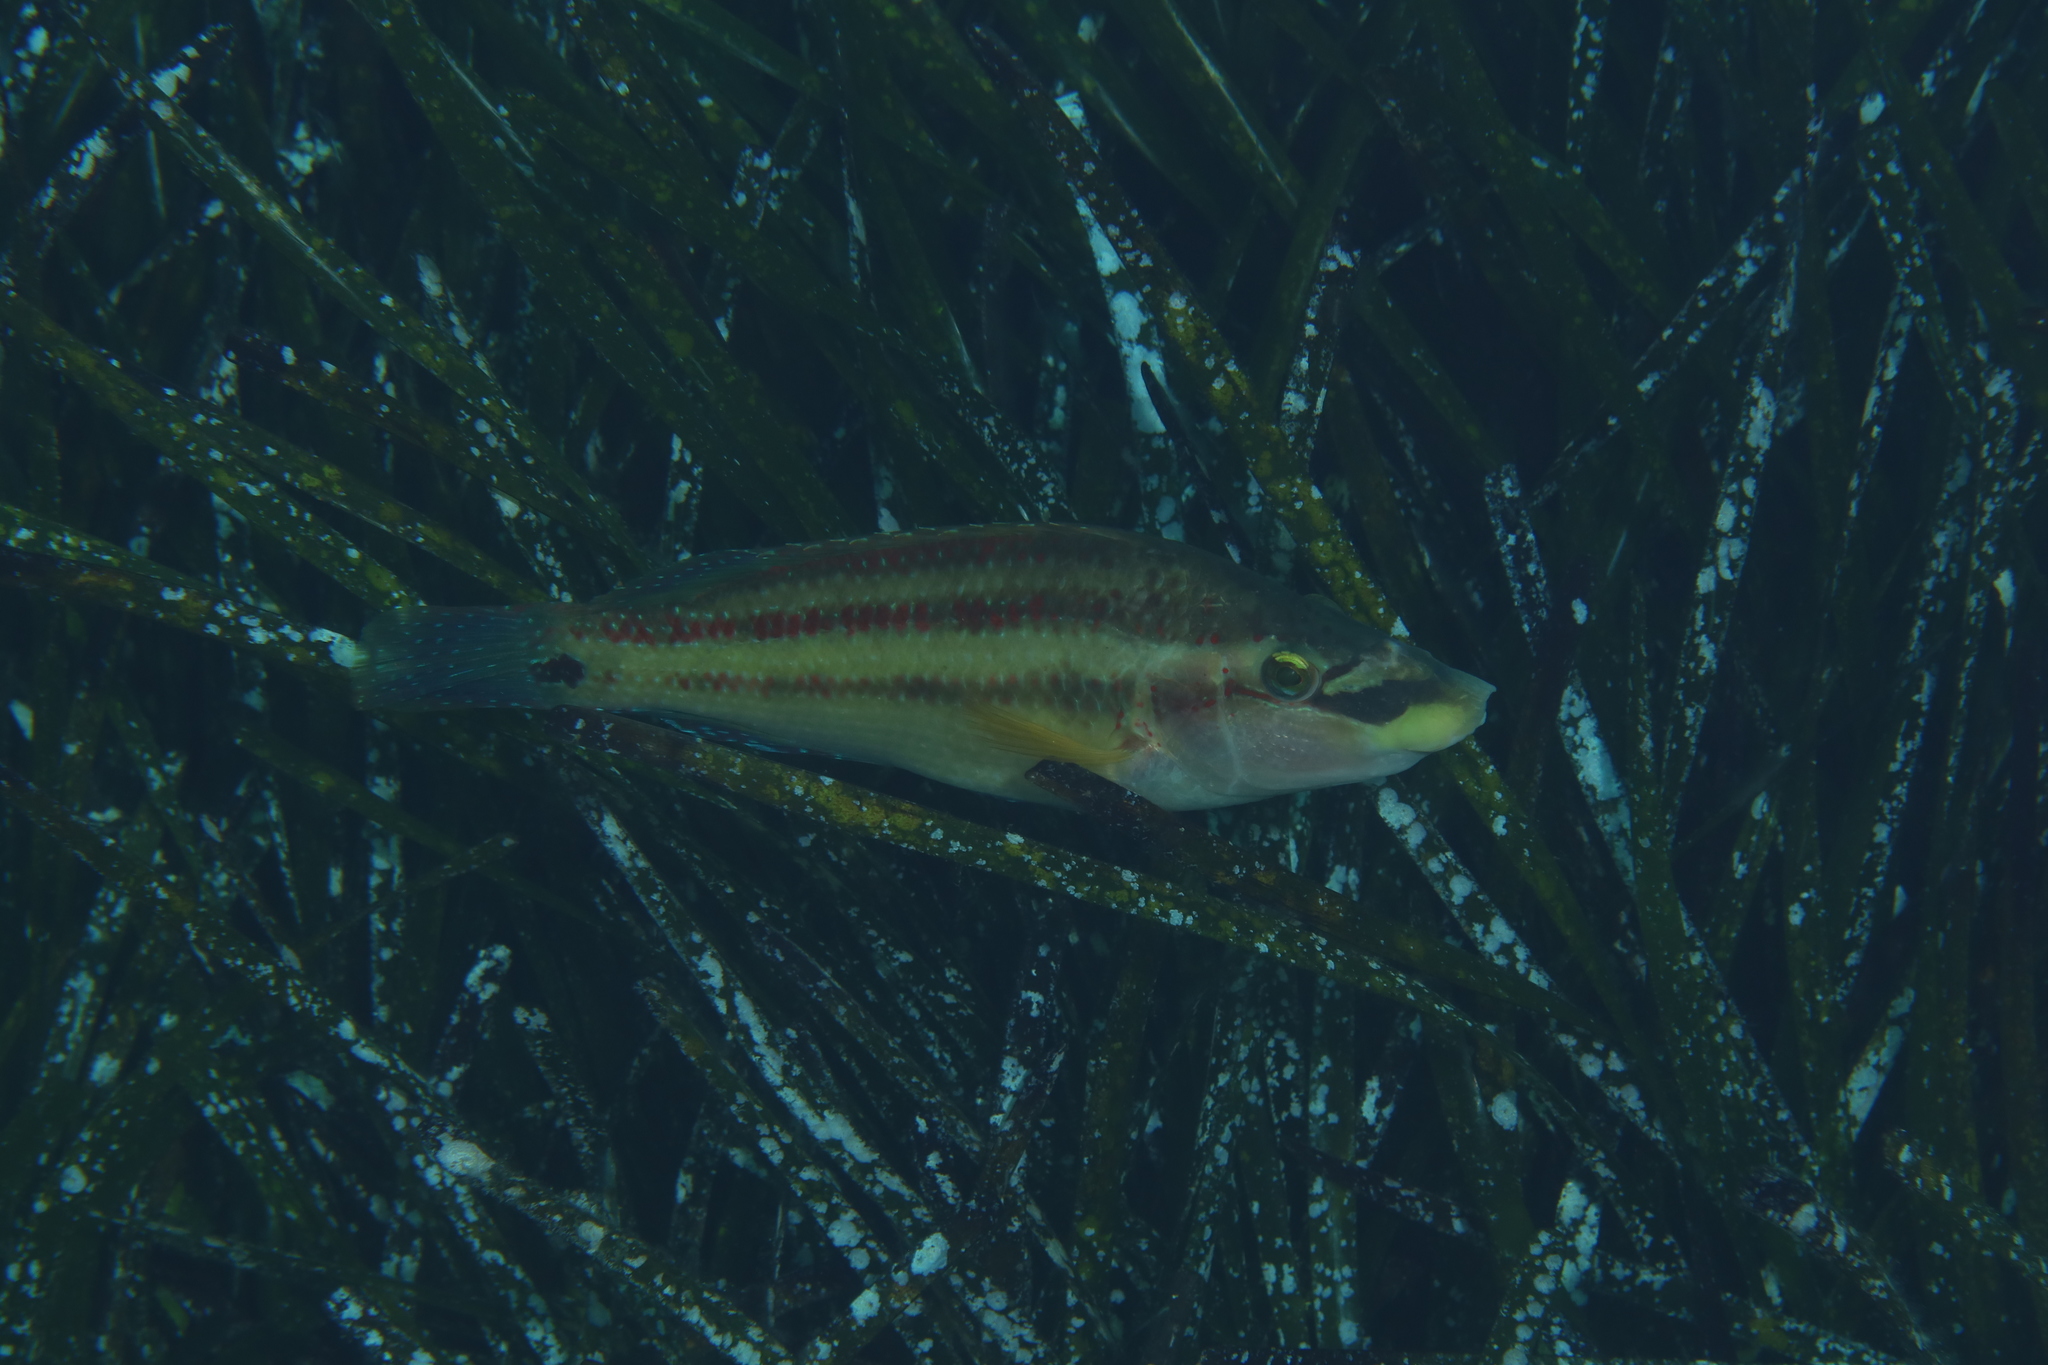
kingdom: Animalia
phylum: Chordata
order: Perciformes
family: Labridae
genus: Symphodus
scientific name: Symphodus tinca
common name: Peacock wrasse
